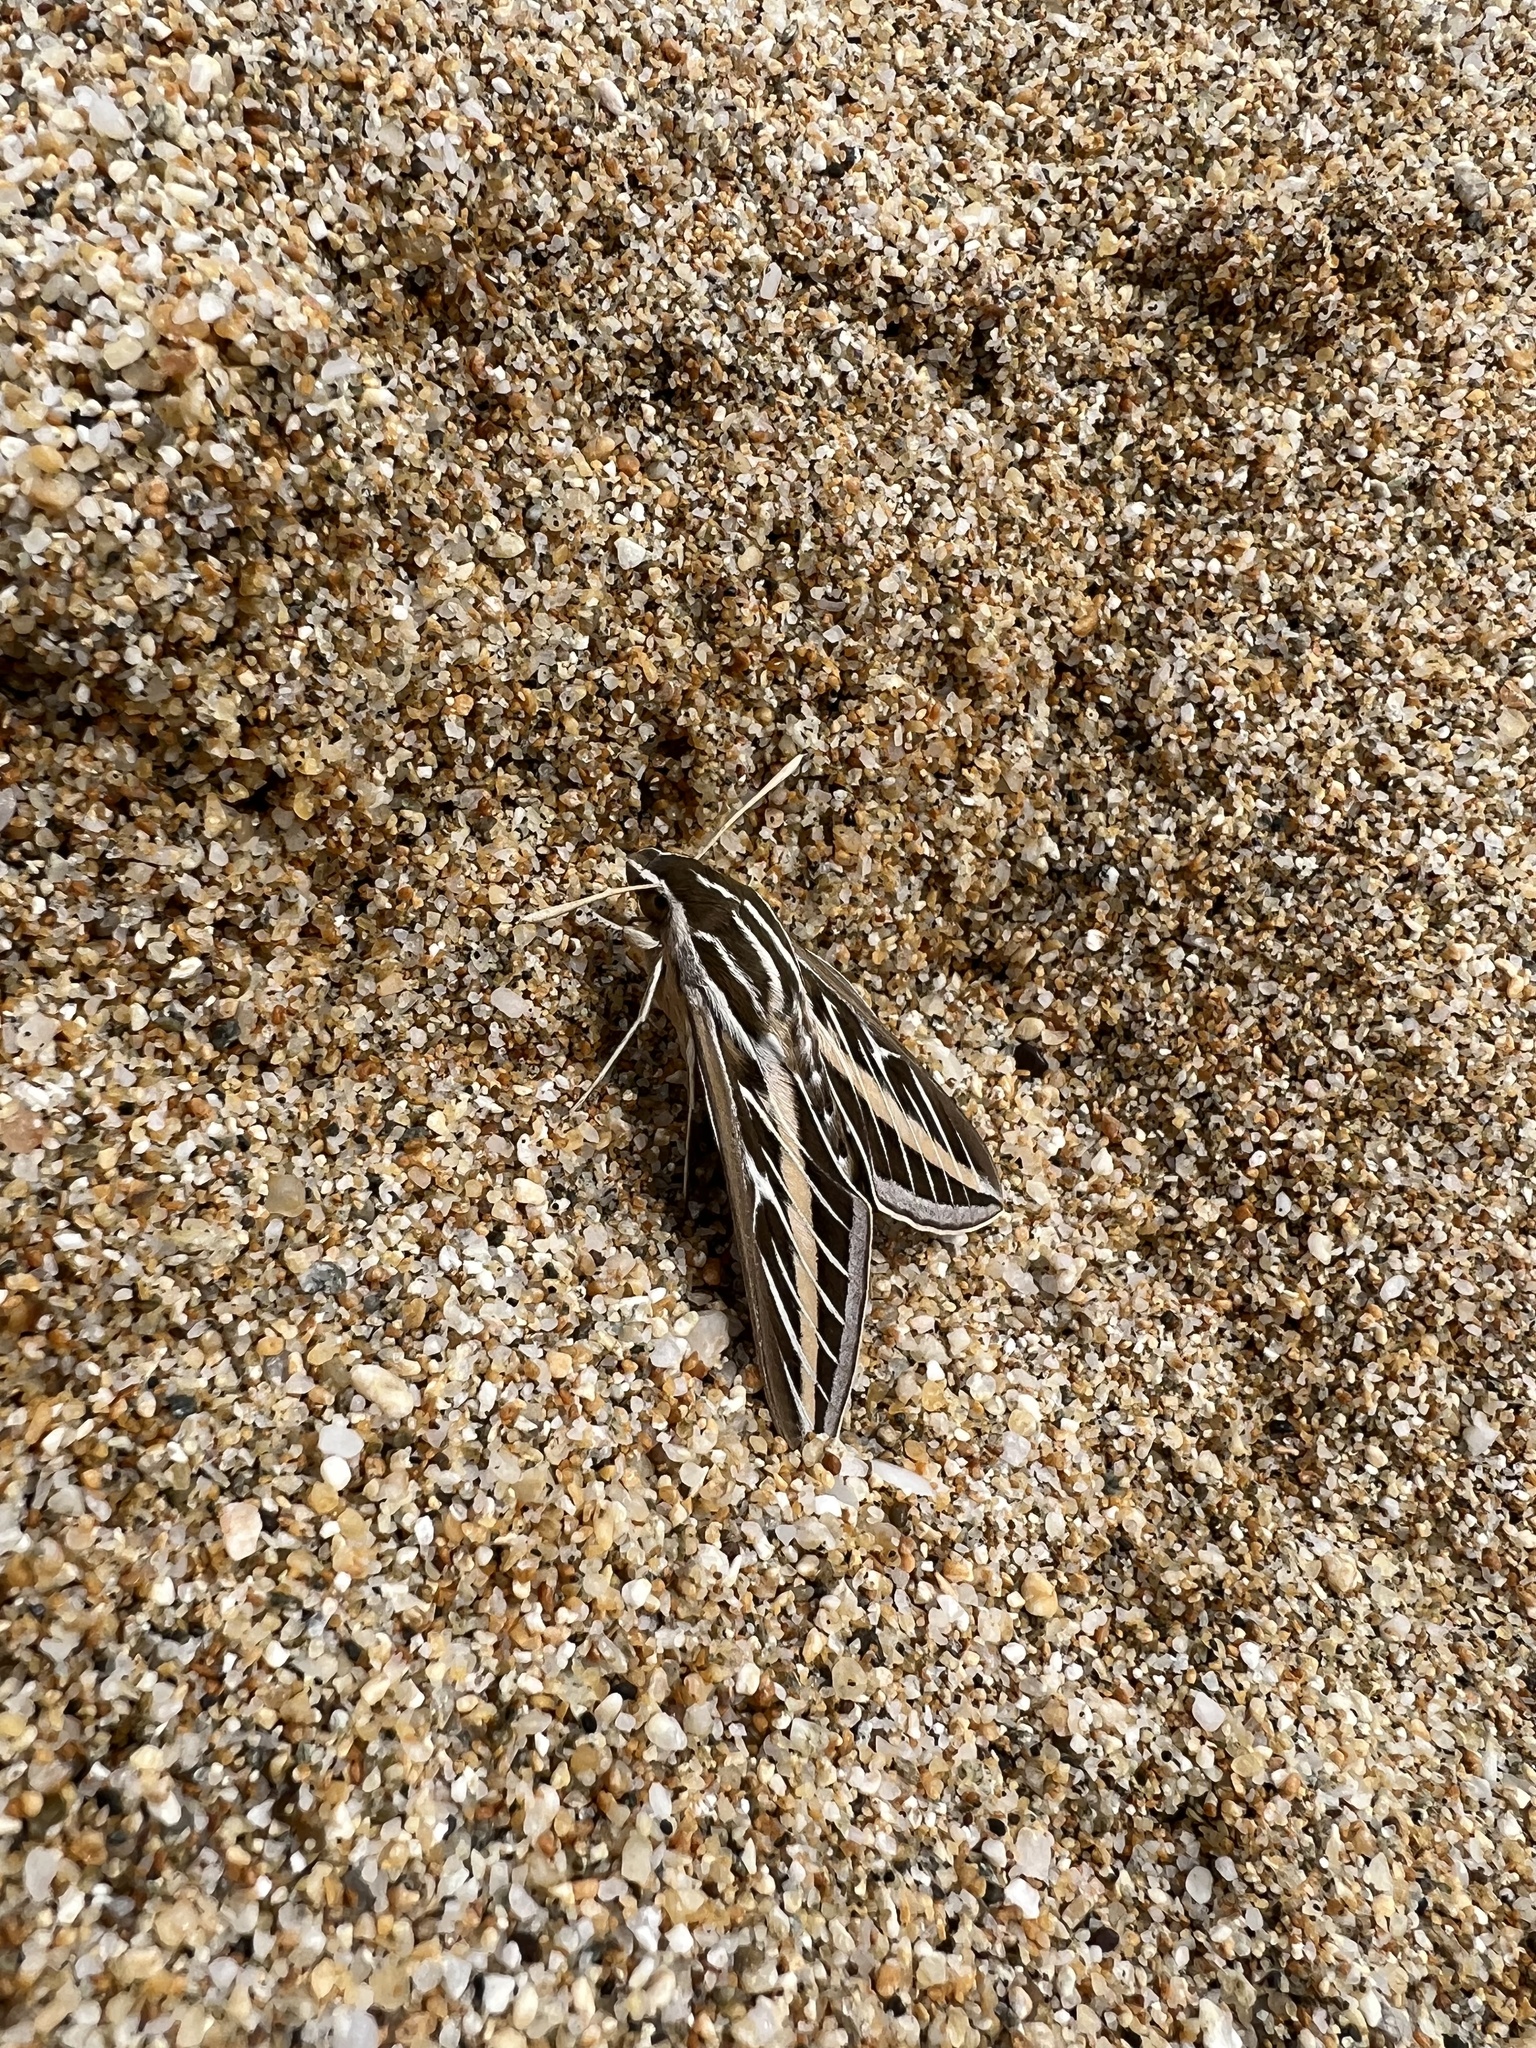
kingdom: Animalia
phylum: Arthropoda
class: Insecta
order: Lepidoptera
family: Sphingidae
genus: Hyles
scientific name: Hyles lineata
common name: White-lined sphinx
